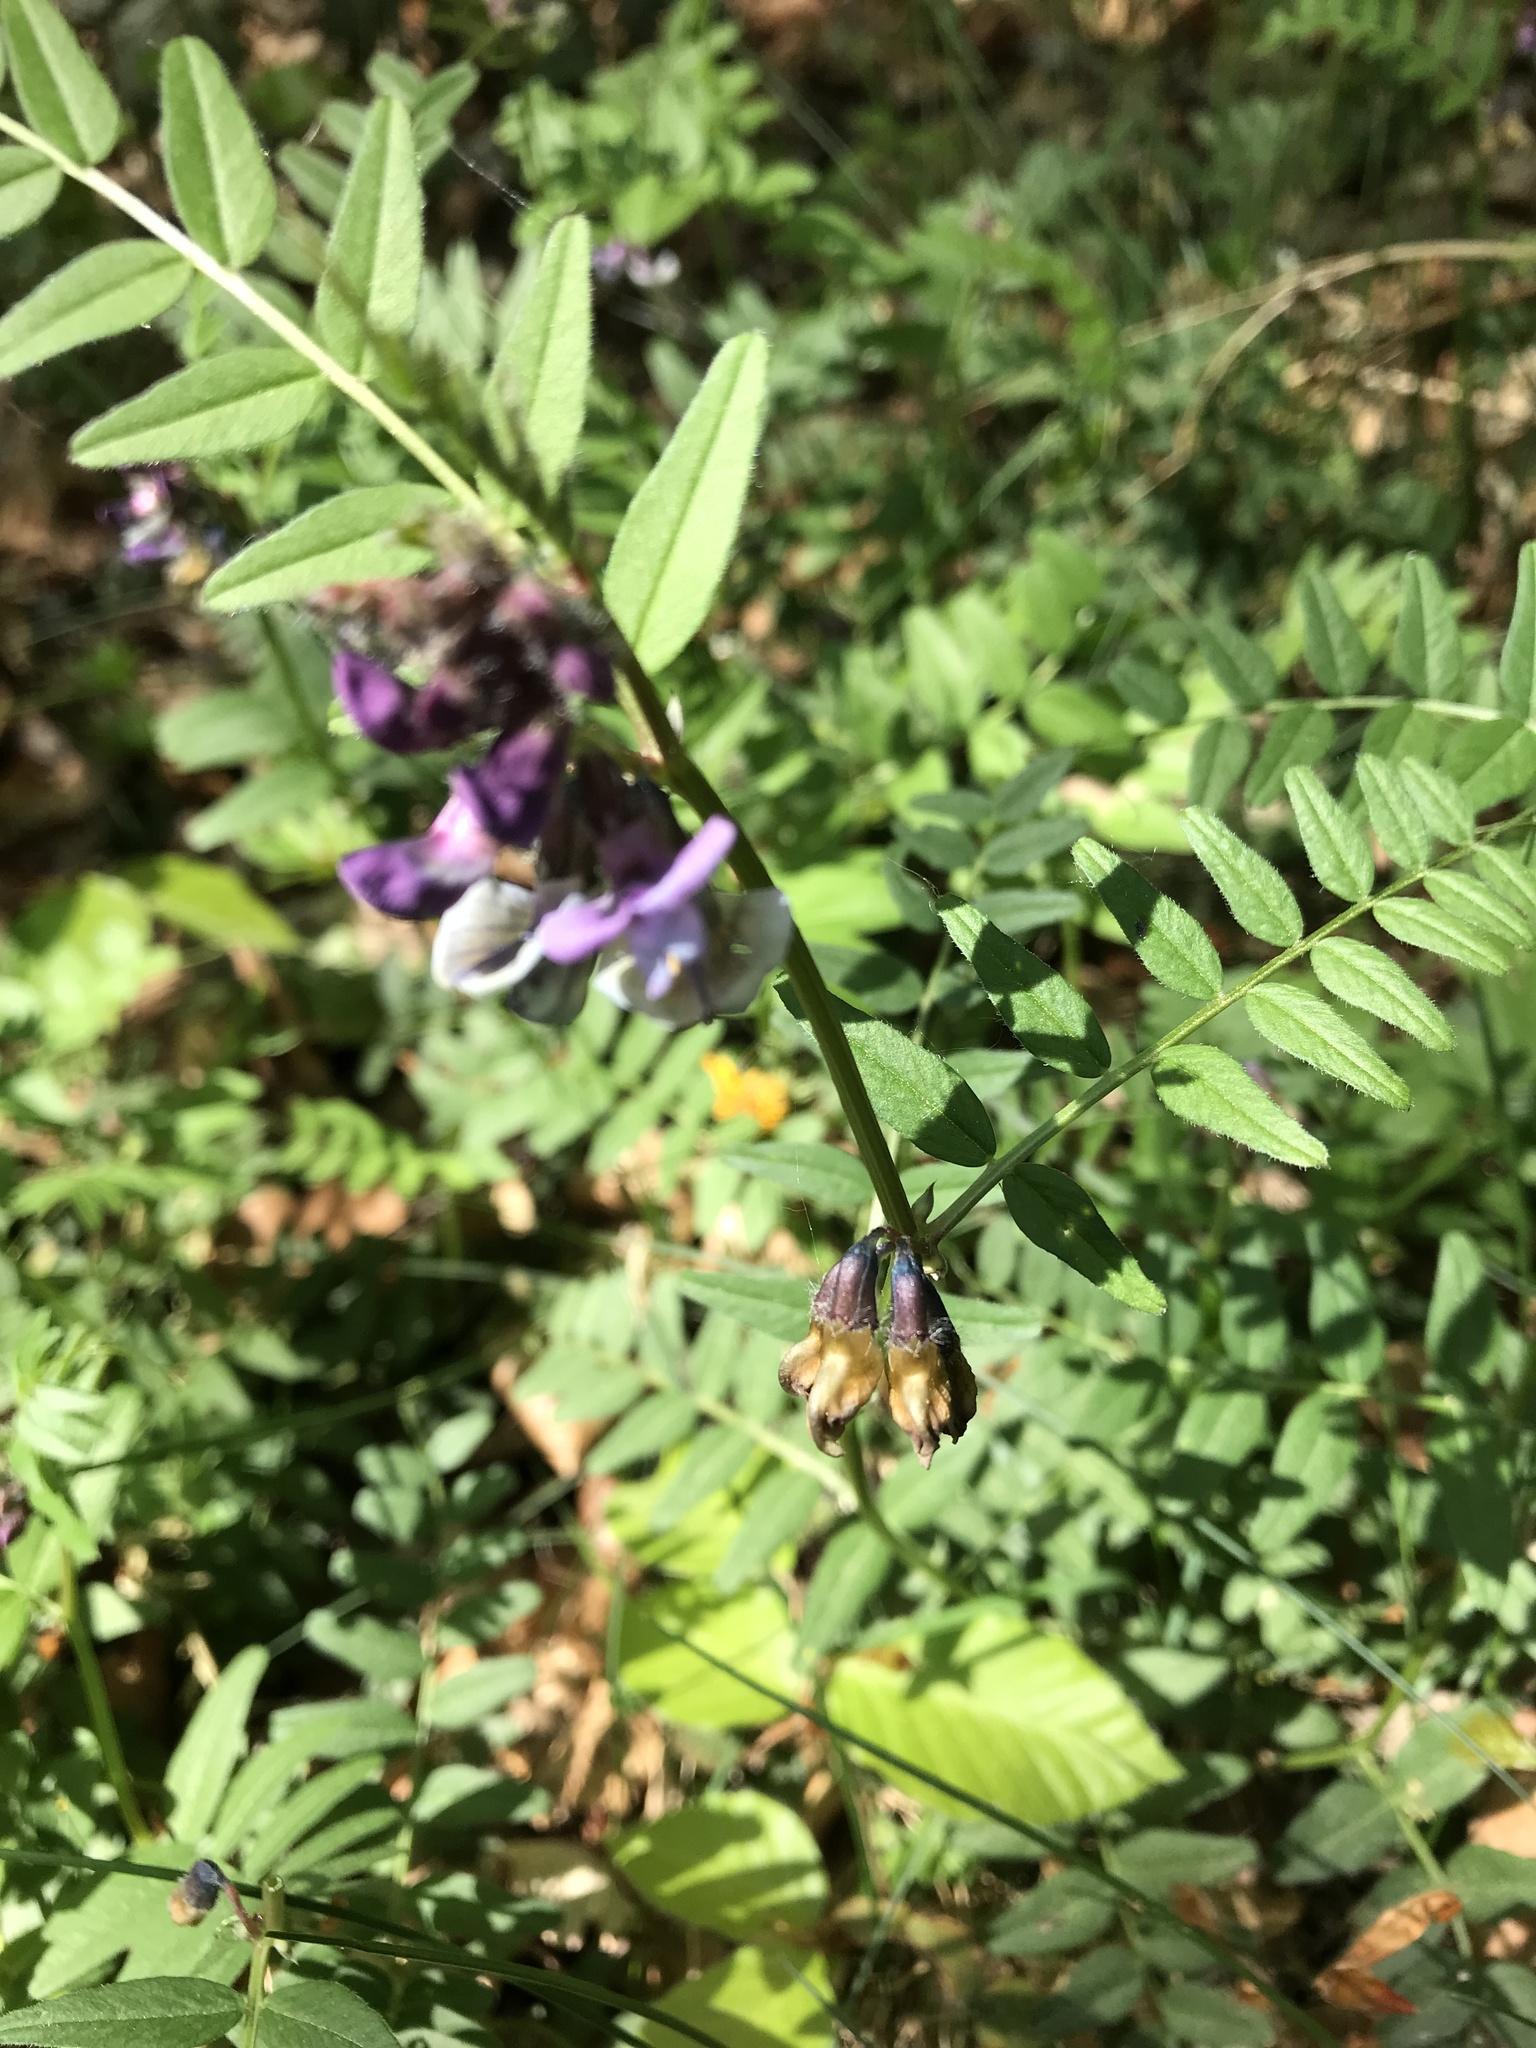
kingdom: Plantae
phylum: Tracheophyta
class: Magnoliopsida
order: Fabales
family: Fabaceae
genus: Vicia
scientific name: Vicia sepium
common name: Bush vetch
